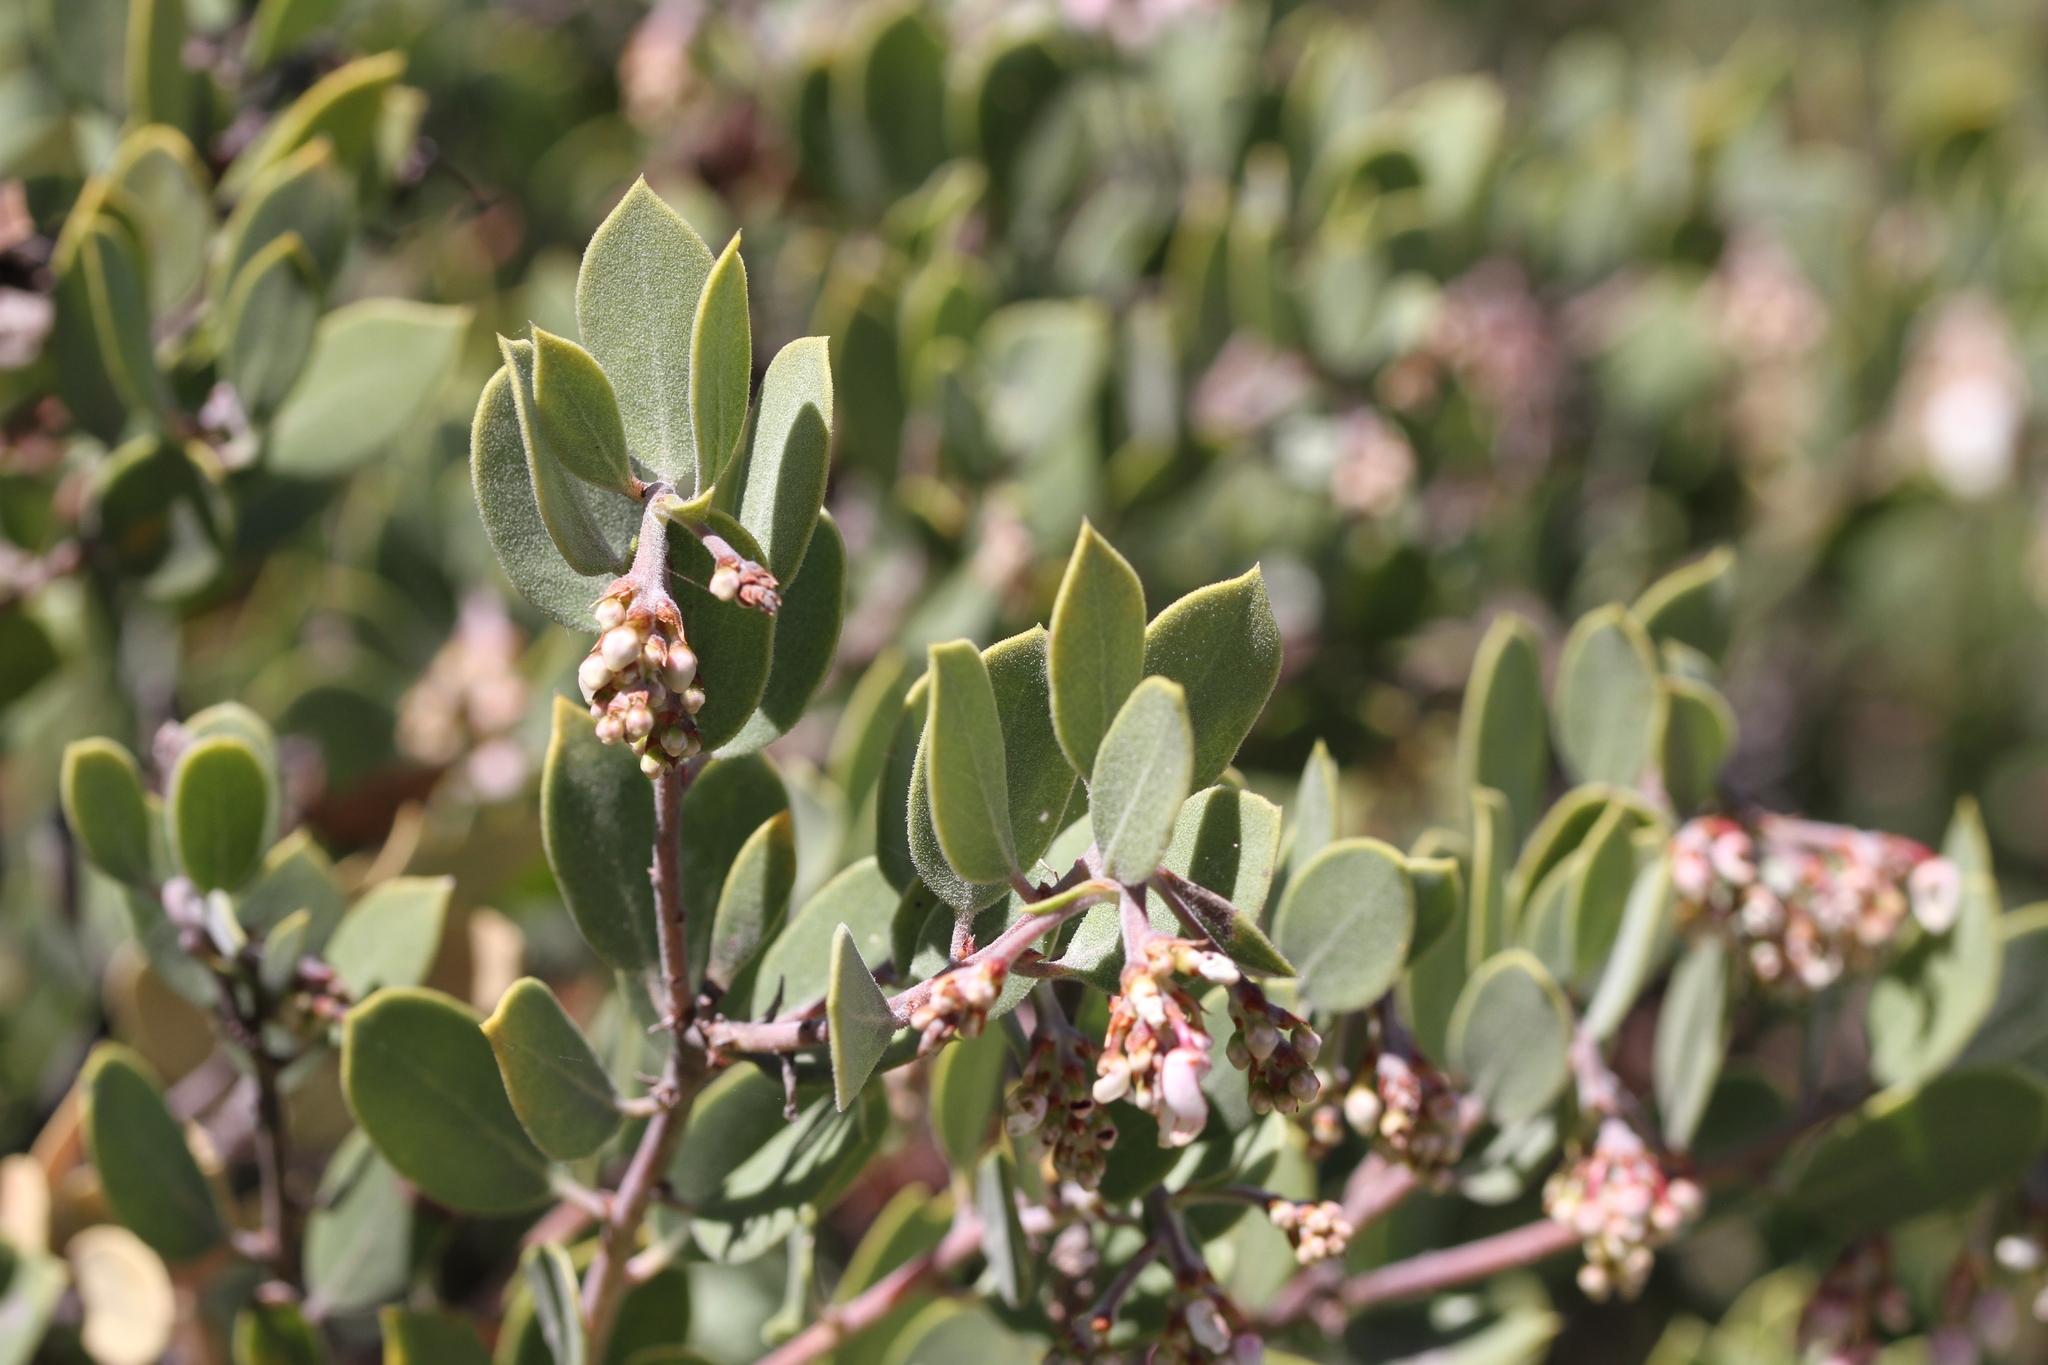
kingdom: Plantae
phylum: Tracheophyta
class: Magnoliopsida
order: Ericales
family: Ericaceae
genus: Arctostaphylos
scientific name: Arctostaphylos montana
